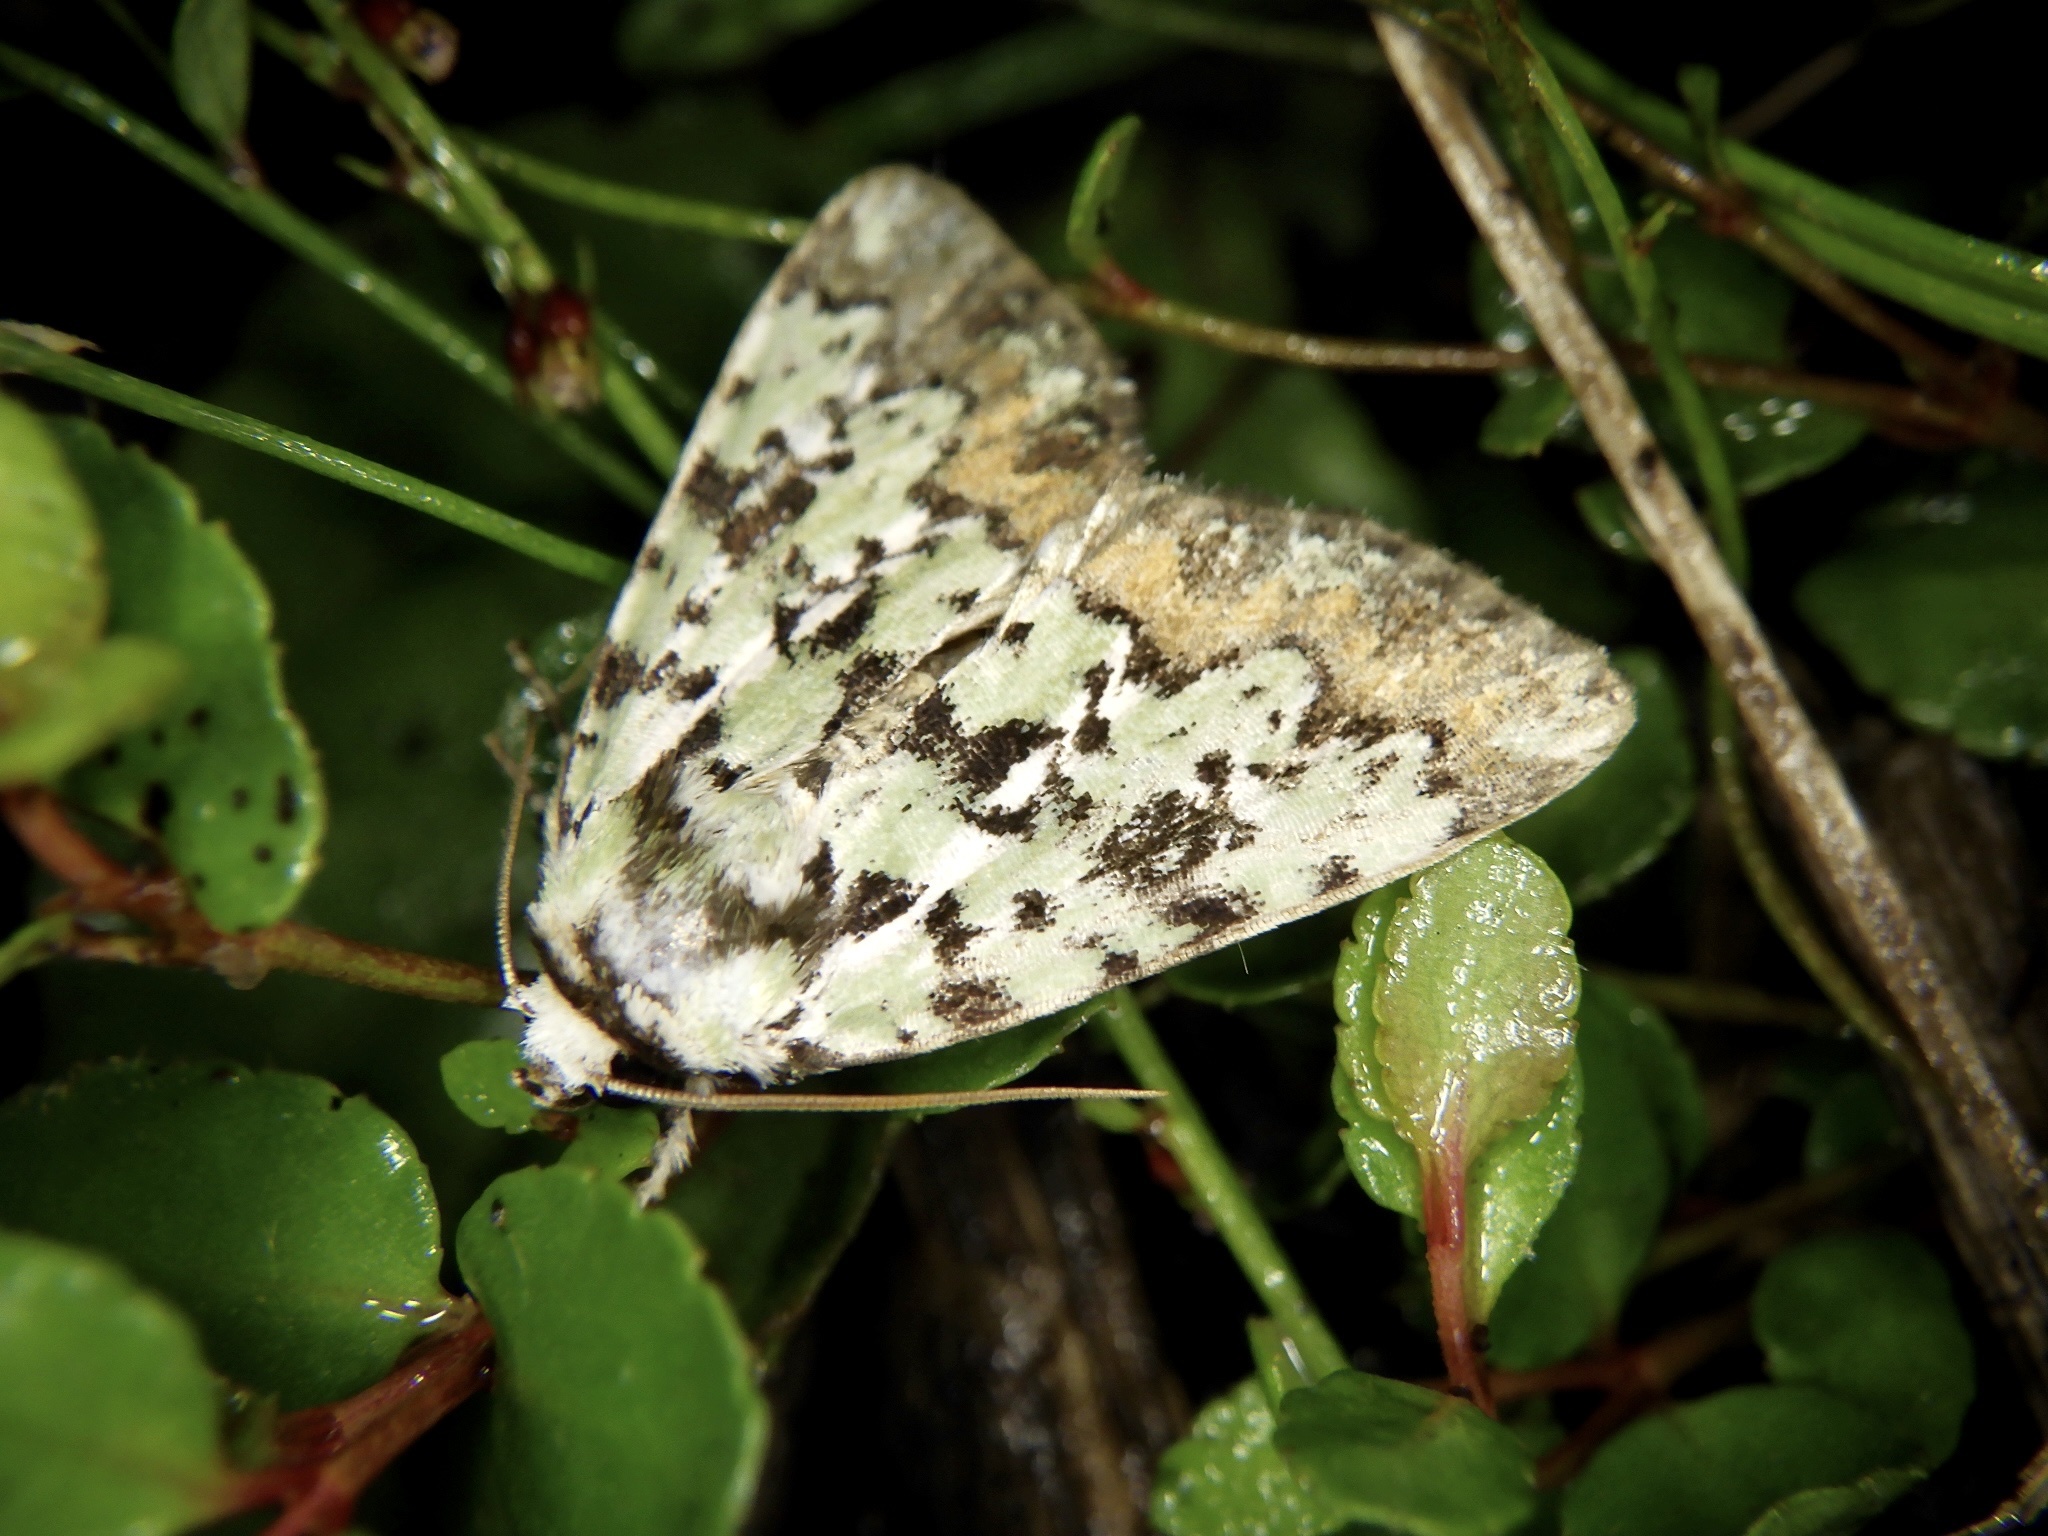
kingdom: Animalia
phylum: Arthropoda
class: Insecta
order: Lepidoptera
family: Noctuidae
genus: Moma
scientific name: Moma
